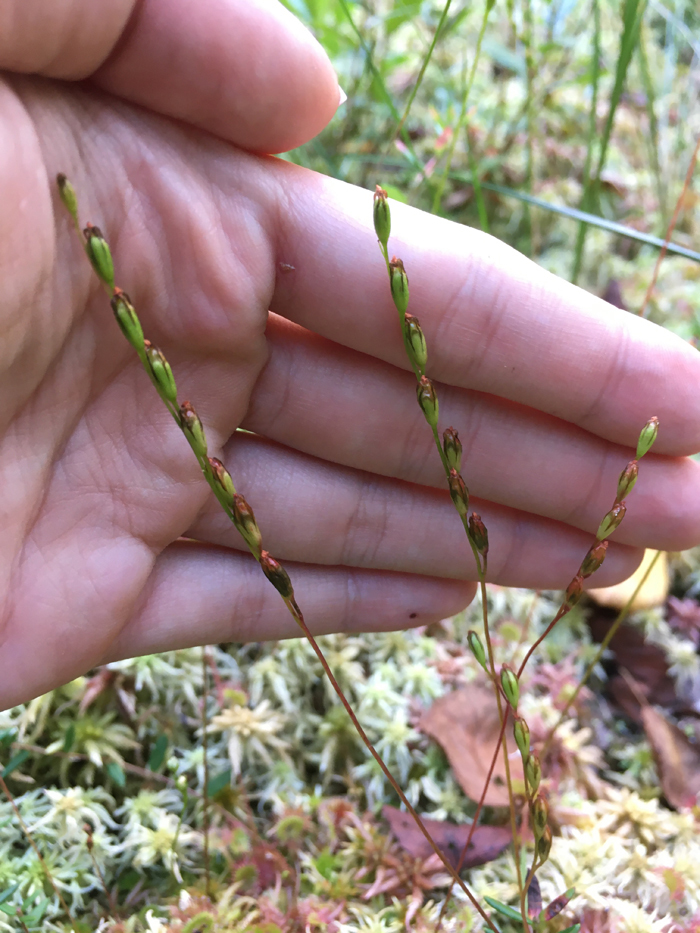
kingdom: Plantae
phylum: Tracheophyta
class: Magnoliopsida
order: Caryophyllales
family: Droseraceae
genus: Drosera
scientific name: Drosera rotundifolia
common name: Round-leaved sundew
